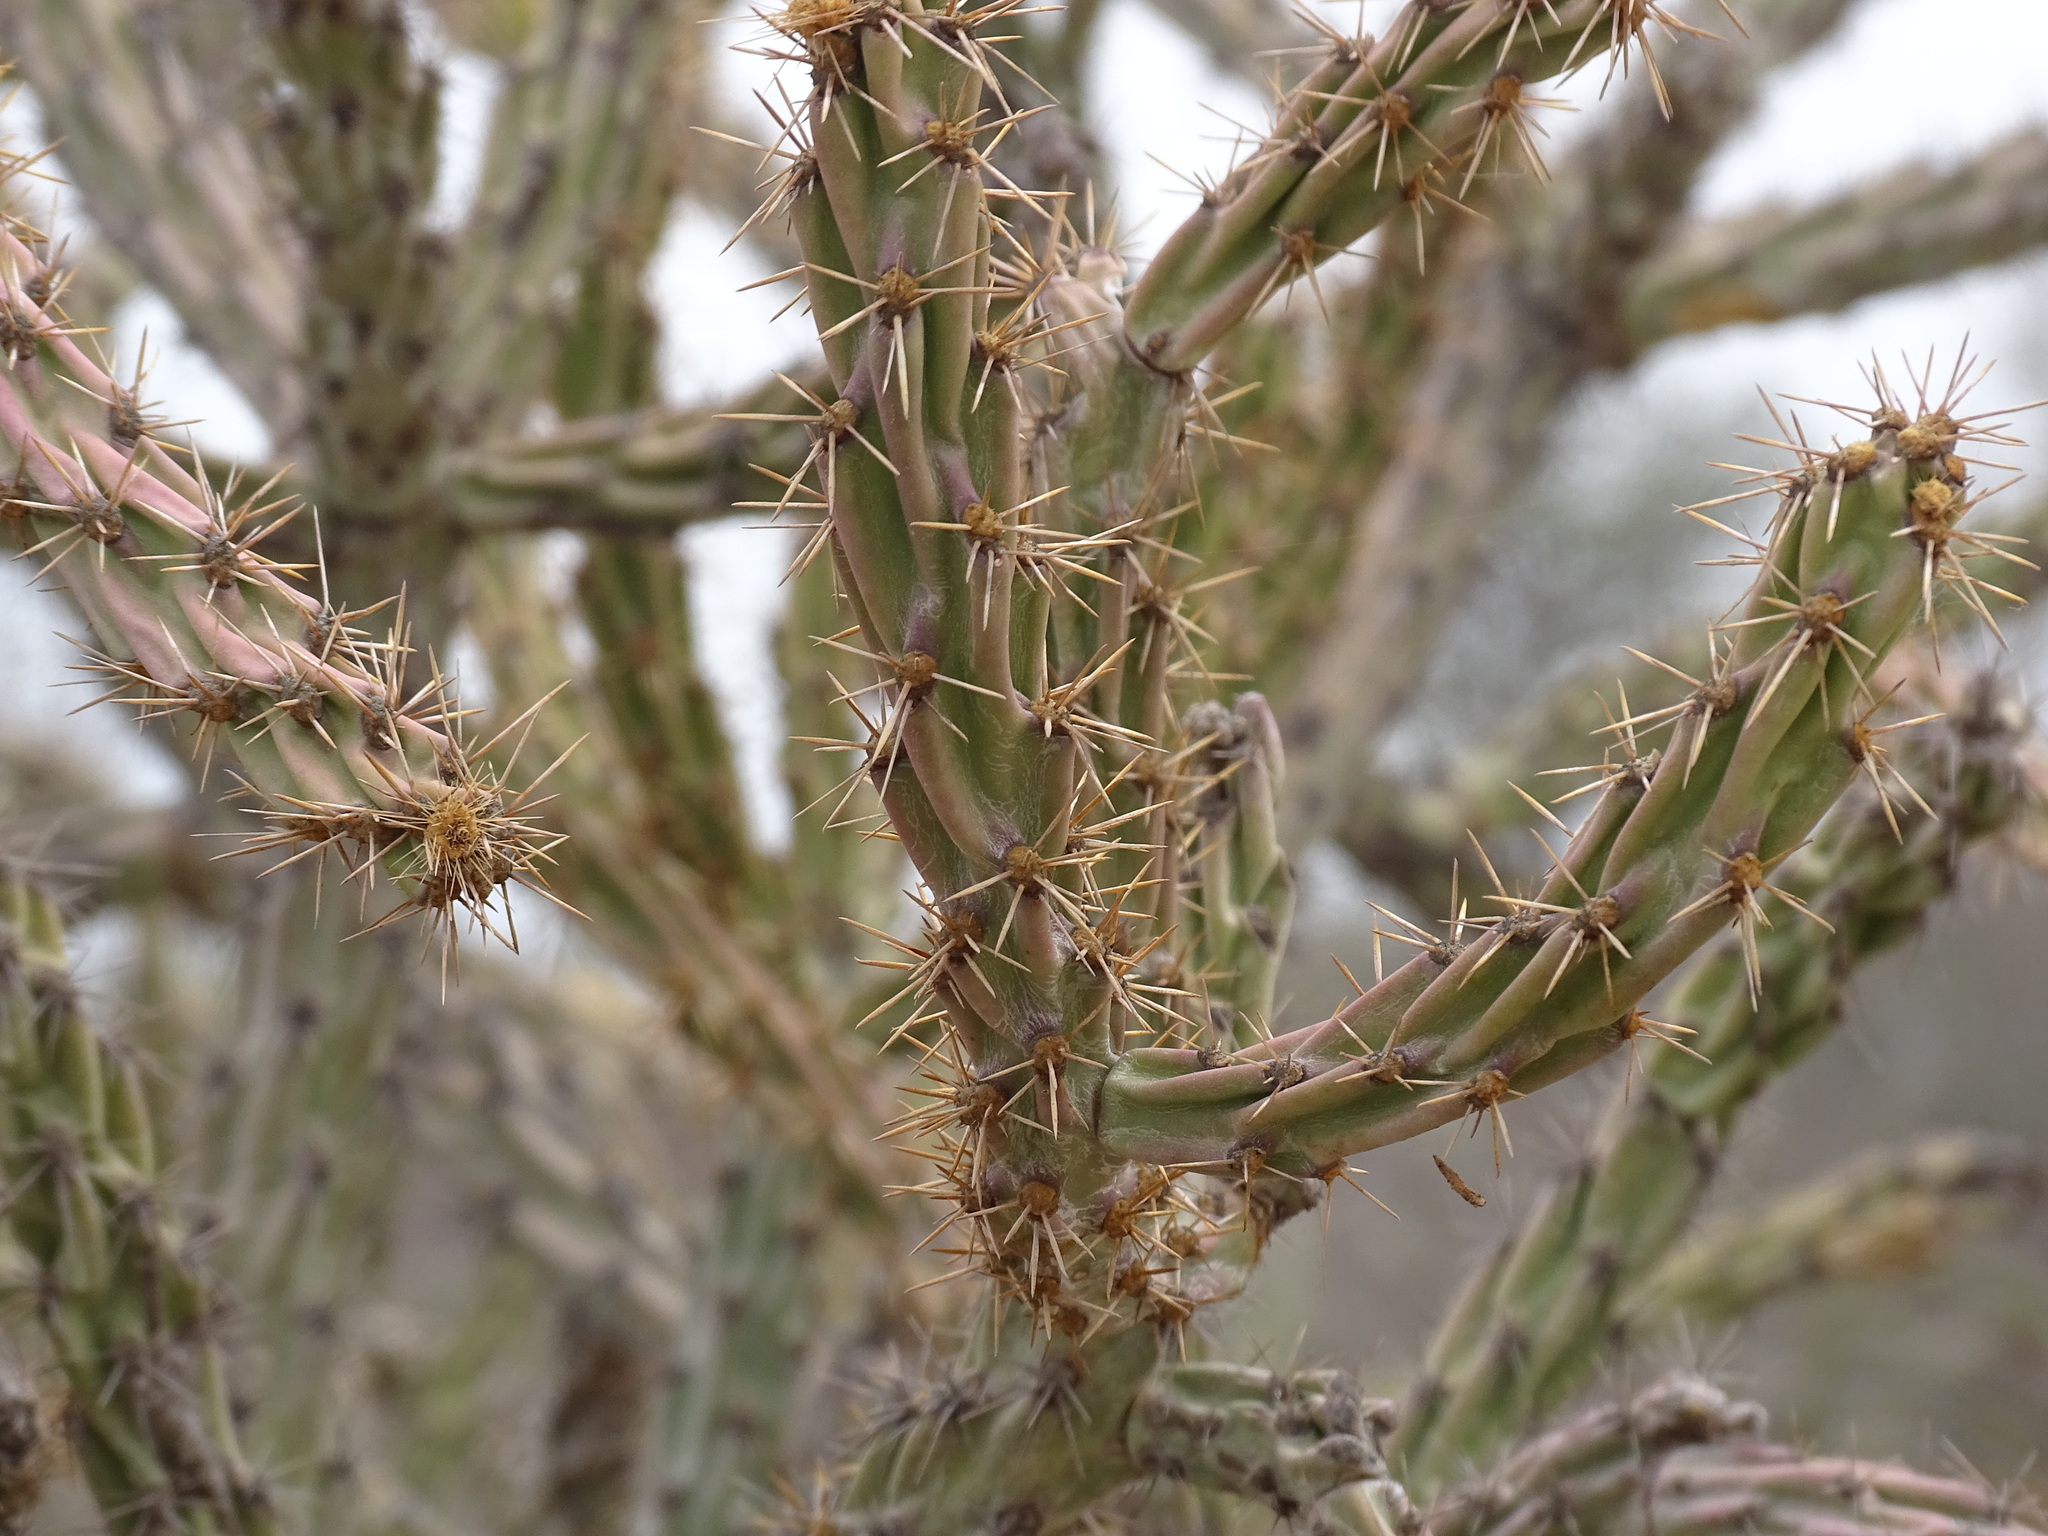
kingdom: Plantae
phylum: Tracheophyta
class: Magnoliopsida
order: Caryophyllales
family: Cactaceae
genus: Cylindropuntia
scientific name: Cylindropuntia thurberi
